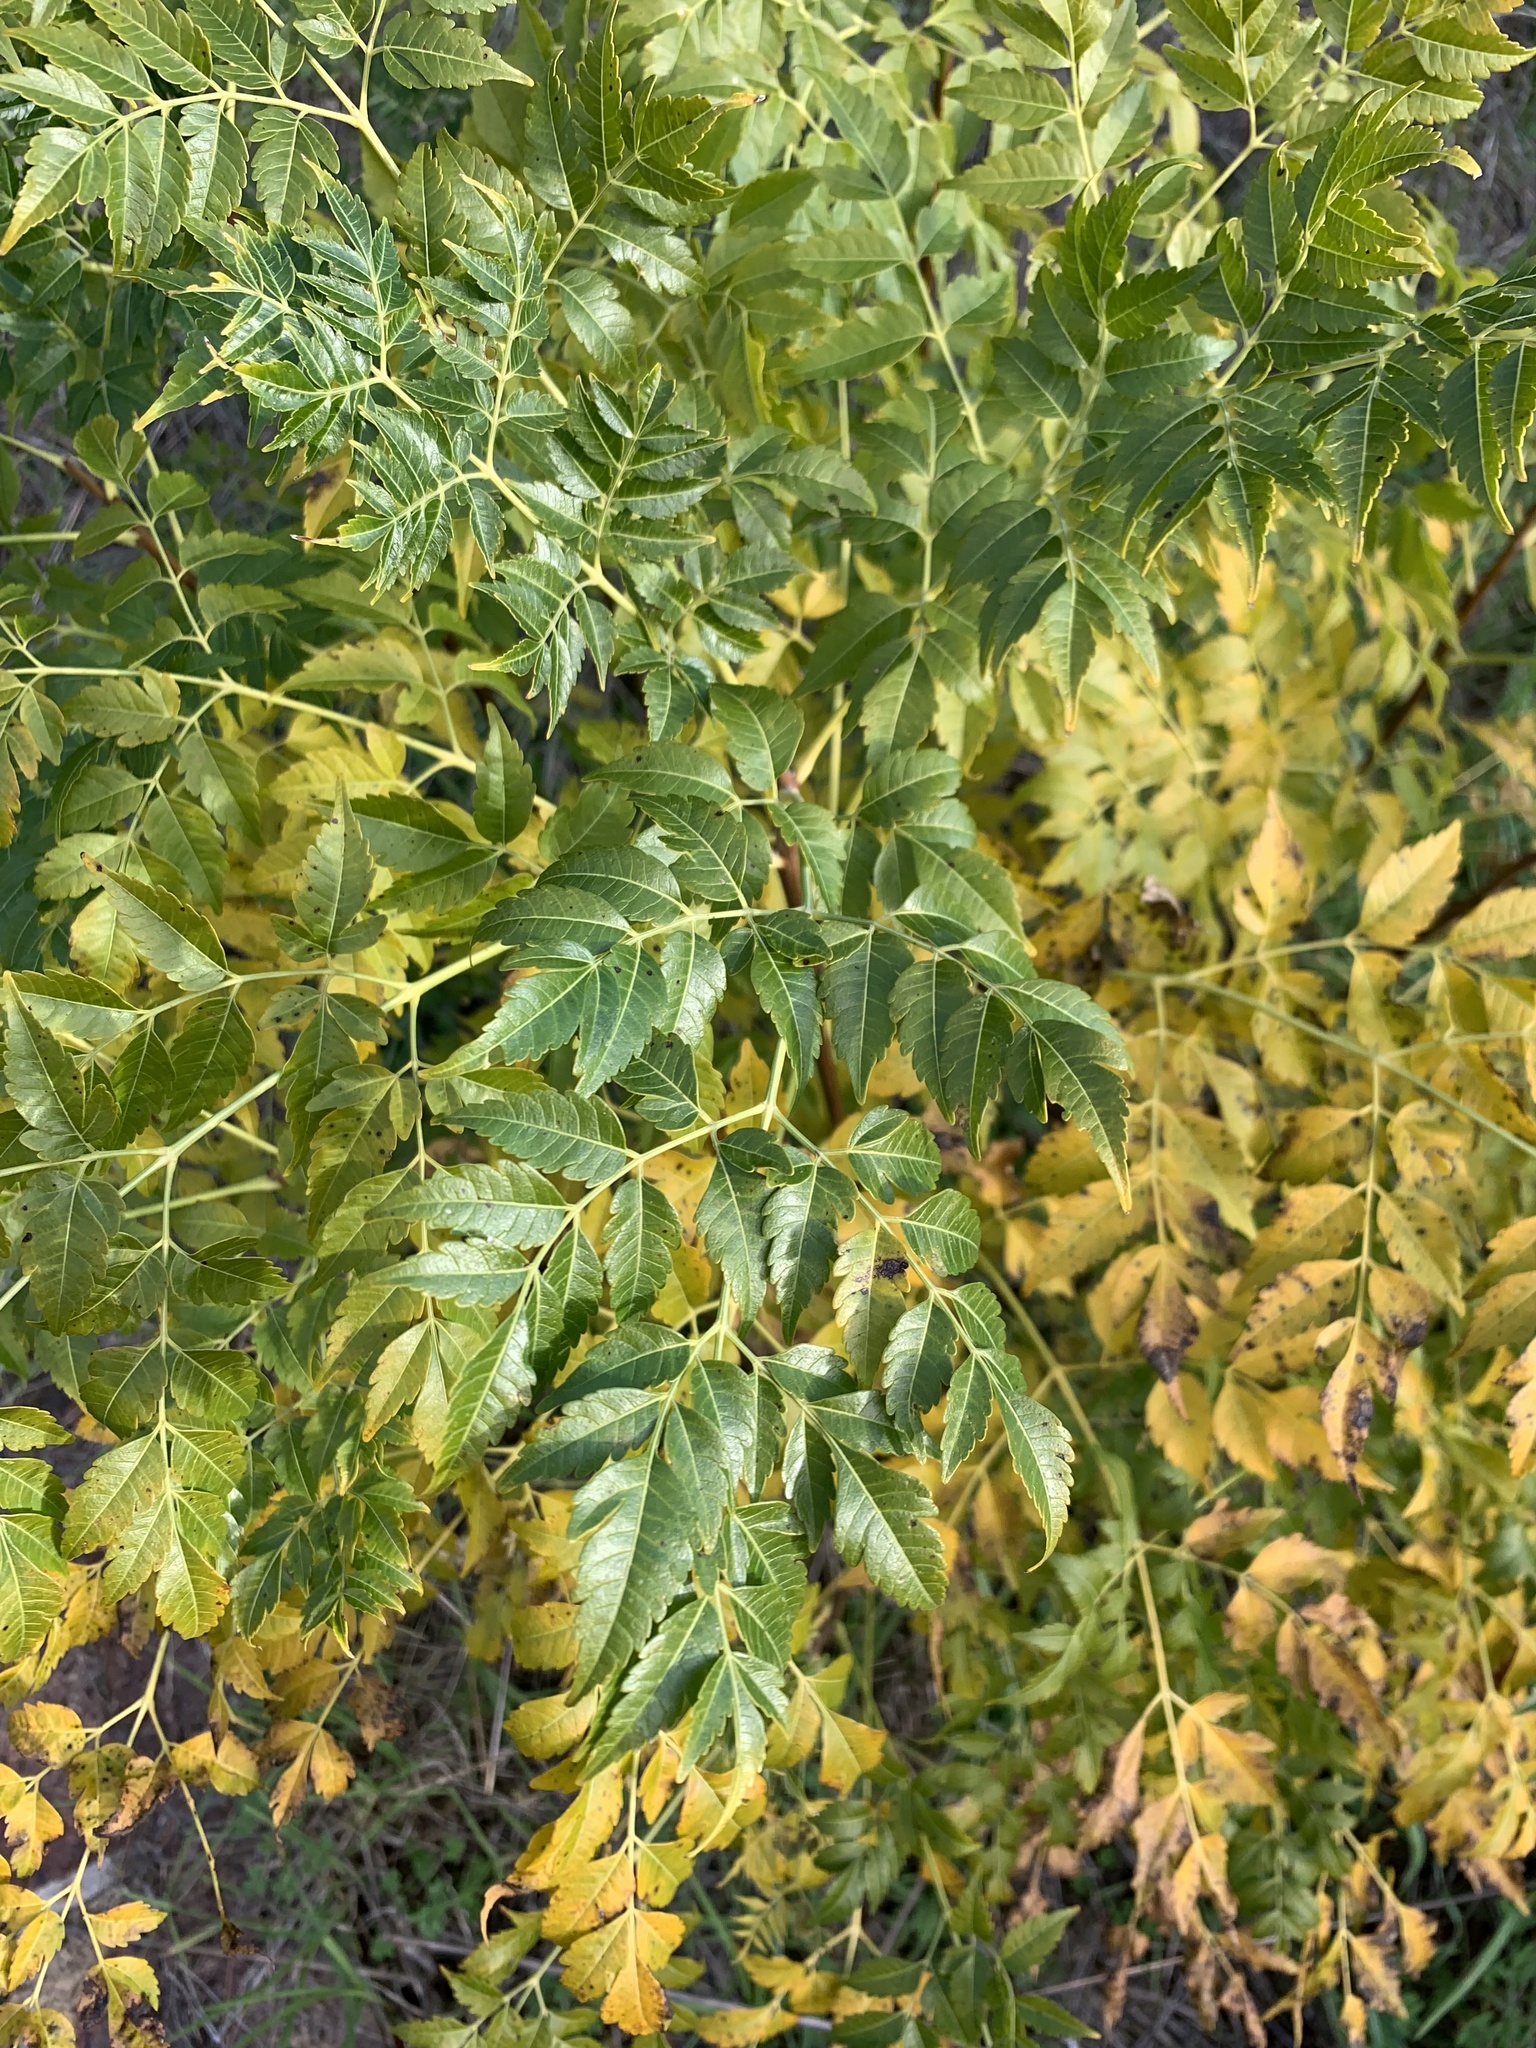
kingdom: Plantae
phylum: Tracheophyta
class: Magnoliopsida
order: Sapindales
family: Meliaceae
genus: Melia
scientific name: Melia azedarach
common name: Chinaberrytree
